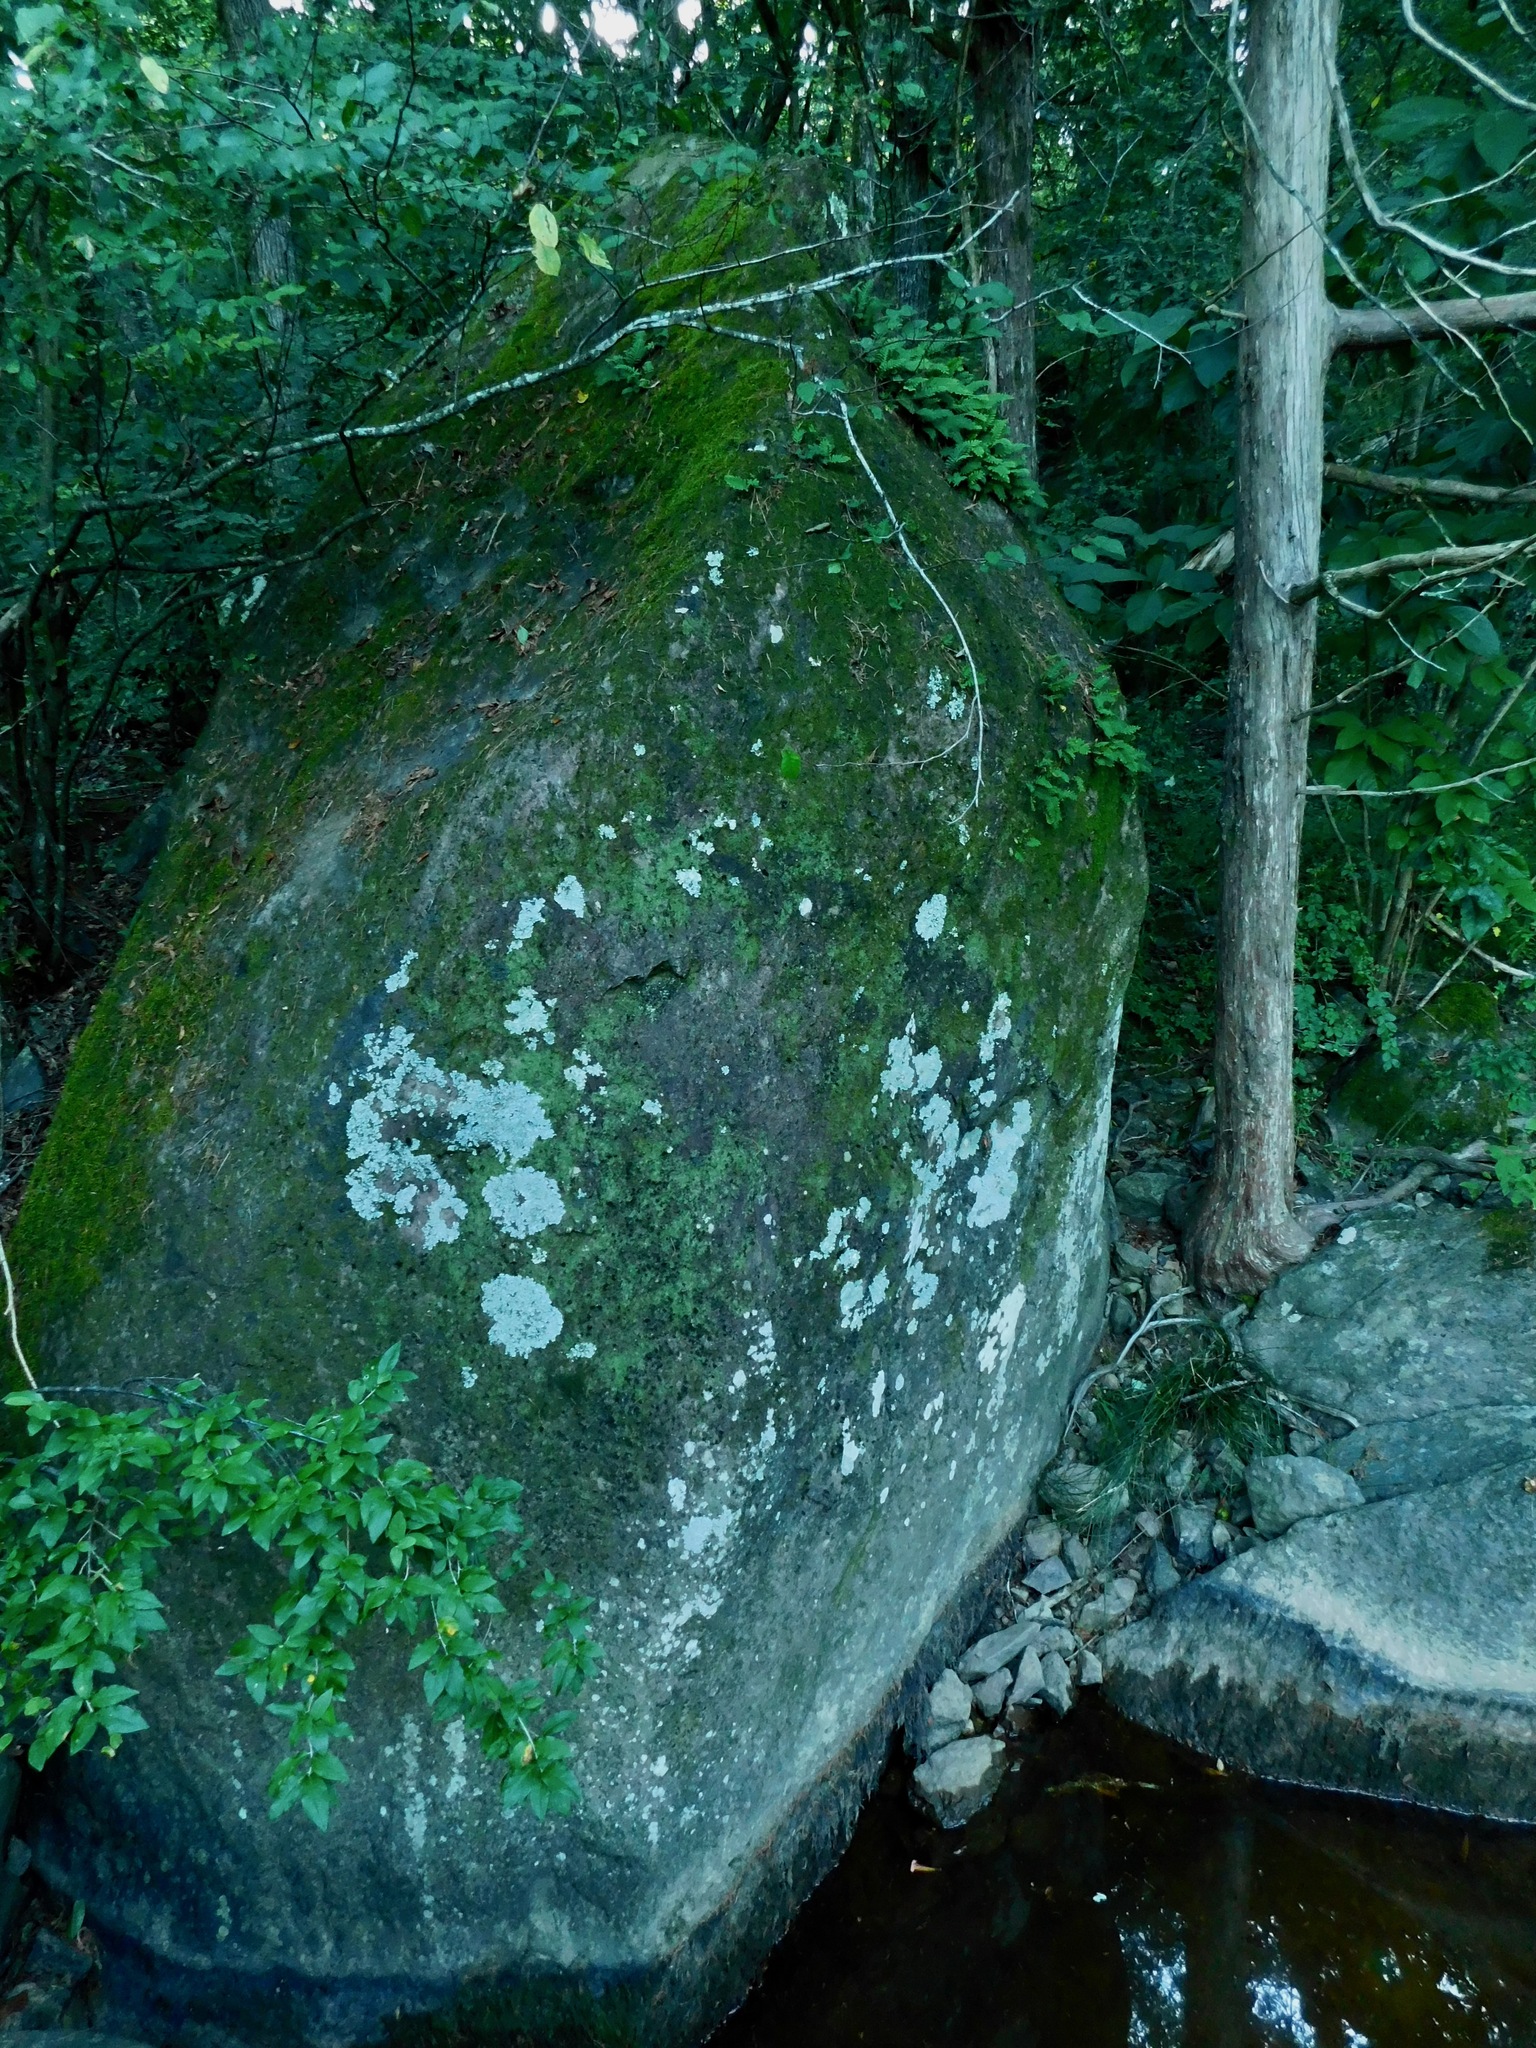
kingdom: Plantae
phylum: Tracheophyta
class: Polypodiopsida
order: Polypodiales
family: Polypodiaceae
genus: Pleopeltis
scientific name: Pleopeltis michauxiana
